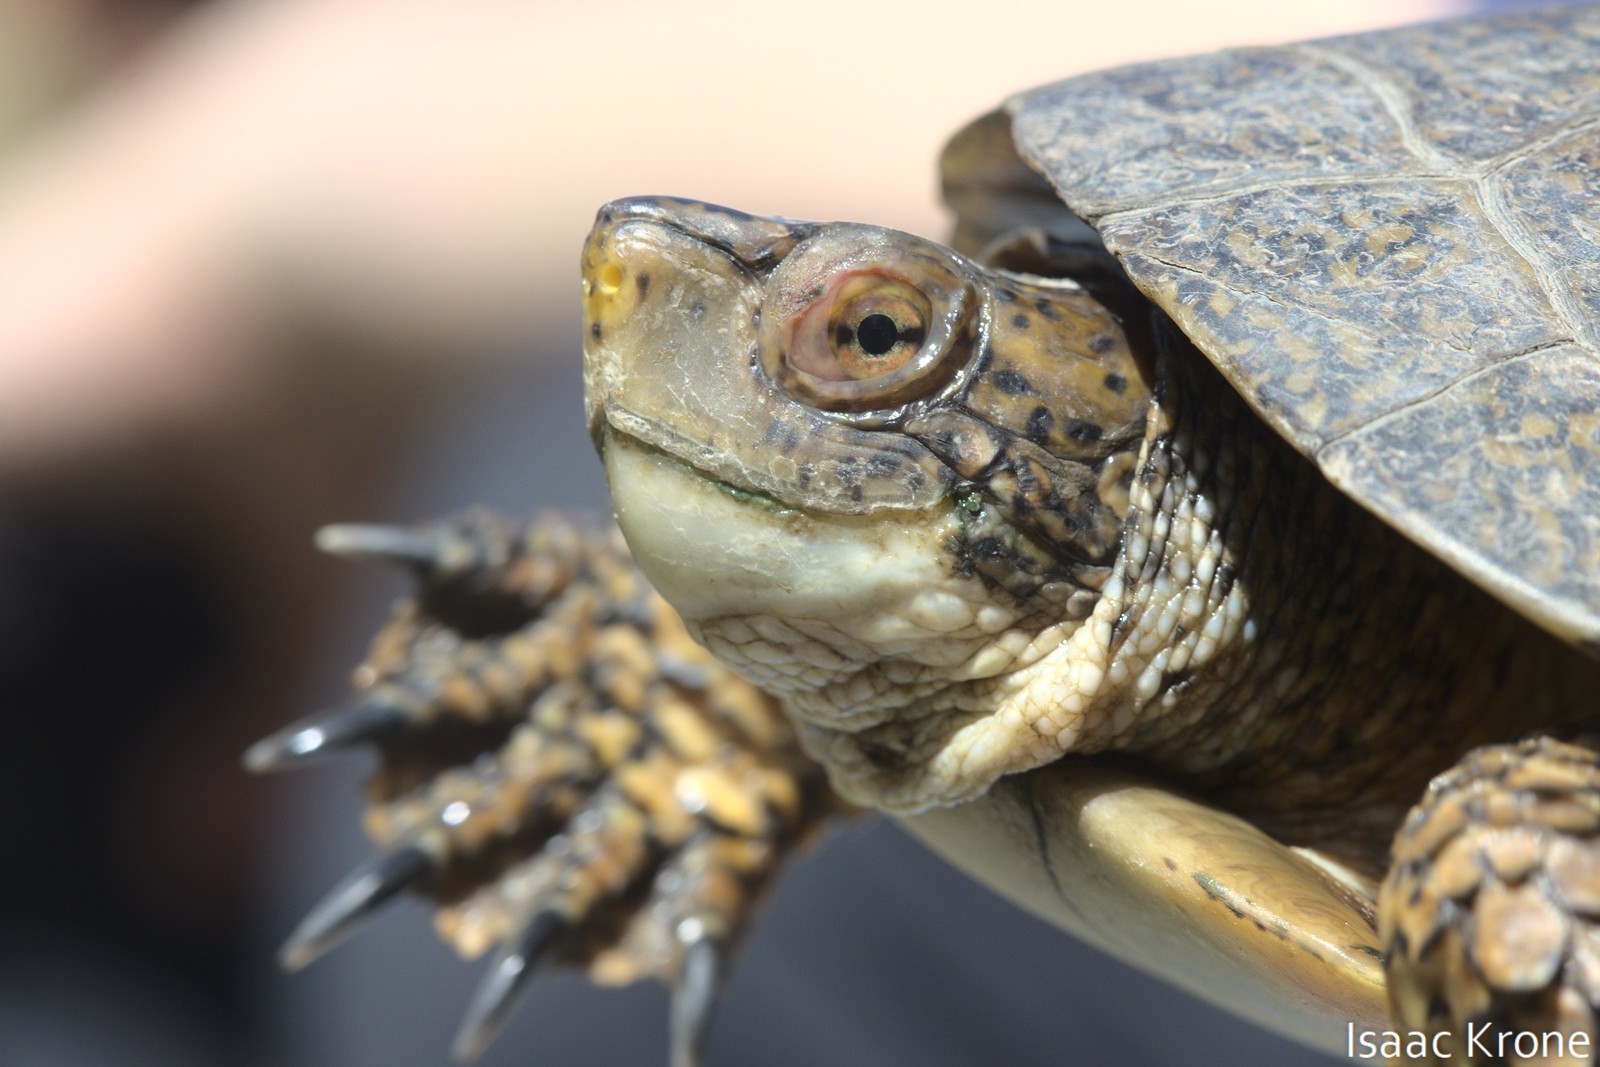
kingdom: Animalia
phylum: Chordata
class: Testudines
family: Emydidae
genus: Actinemys
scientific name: Actinemys marmorata
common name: Western pond turtle
